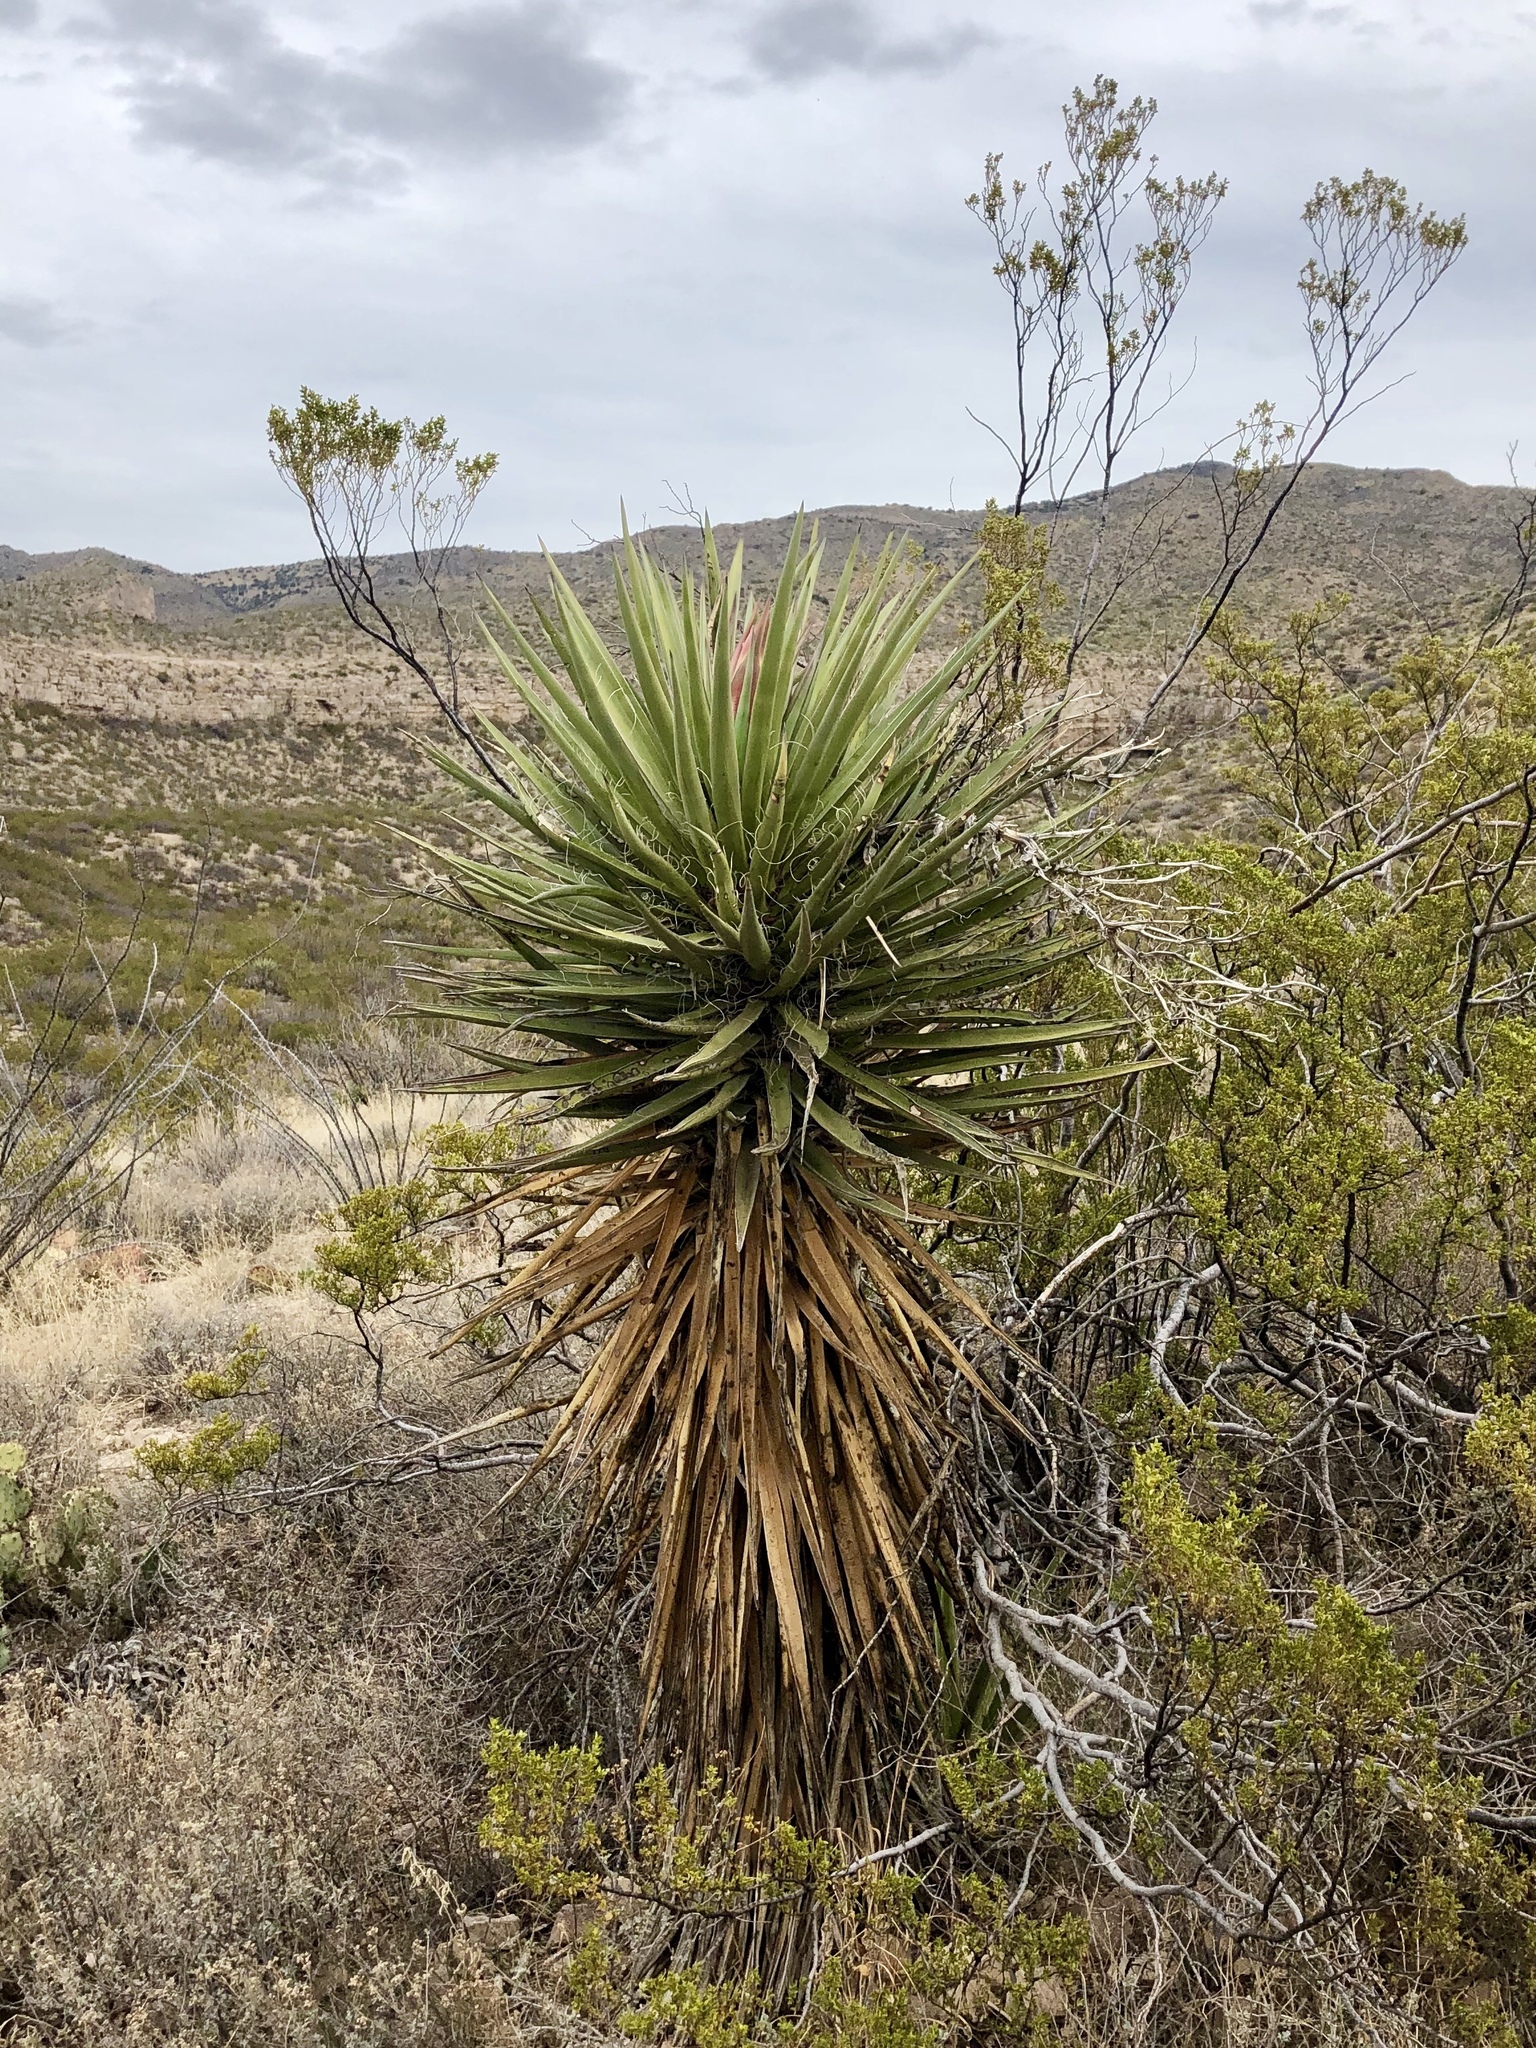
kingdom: Plantae
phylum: Tracheophyta
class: Liliopsida
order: Asparagales
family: Asparagaceae
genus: Yucca
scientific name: Yucca treculiana
